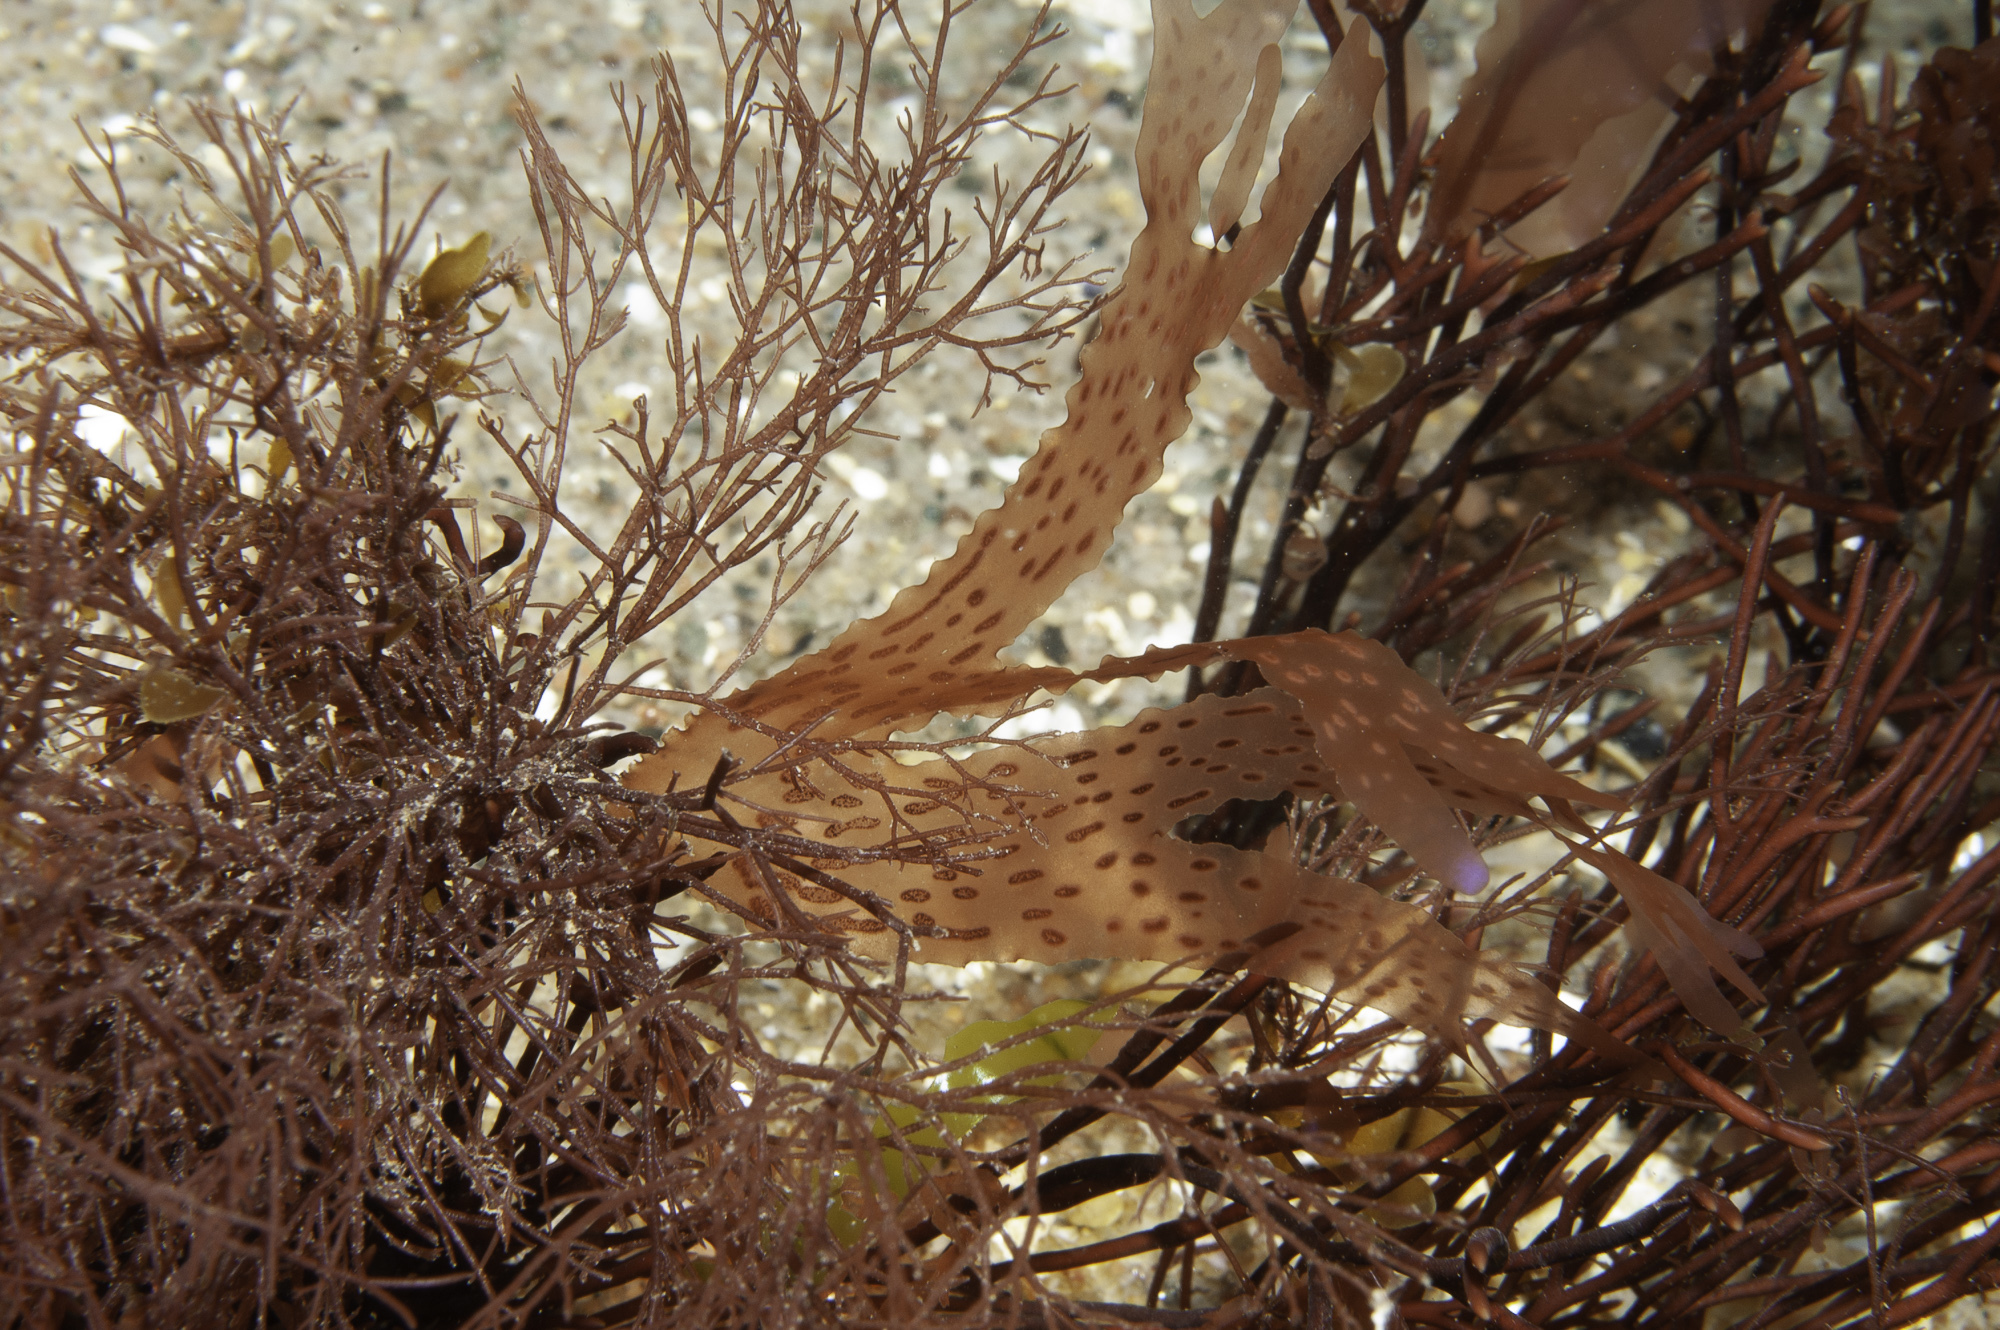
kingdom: Plantae
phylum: Rhodophyta
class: Florideophyceae
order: Ceramiales
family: Delesseriaceae
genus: Nitophyllum
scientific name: Nitophyllum punctatum
